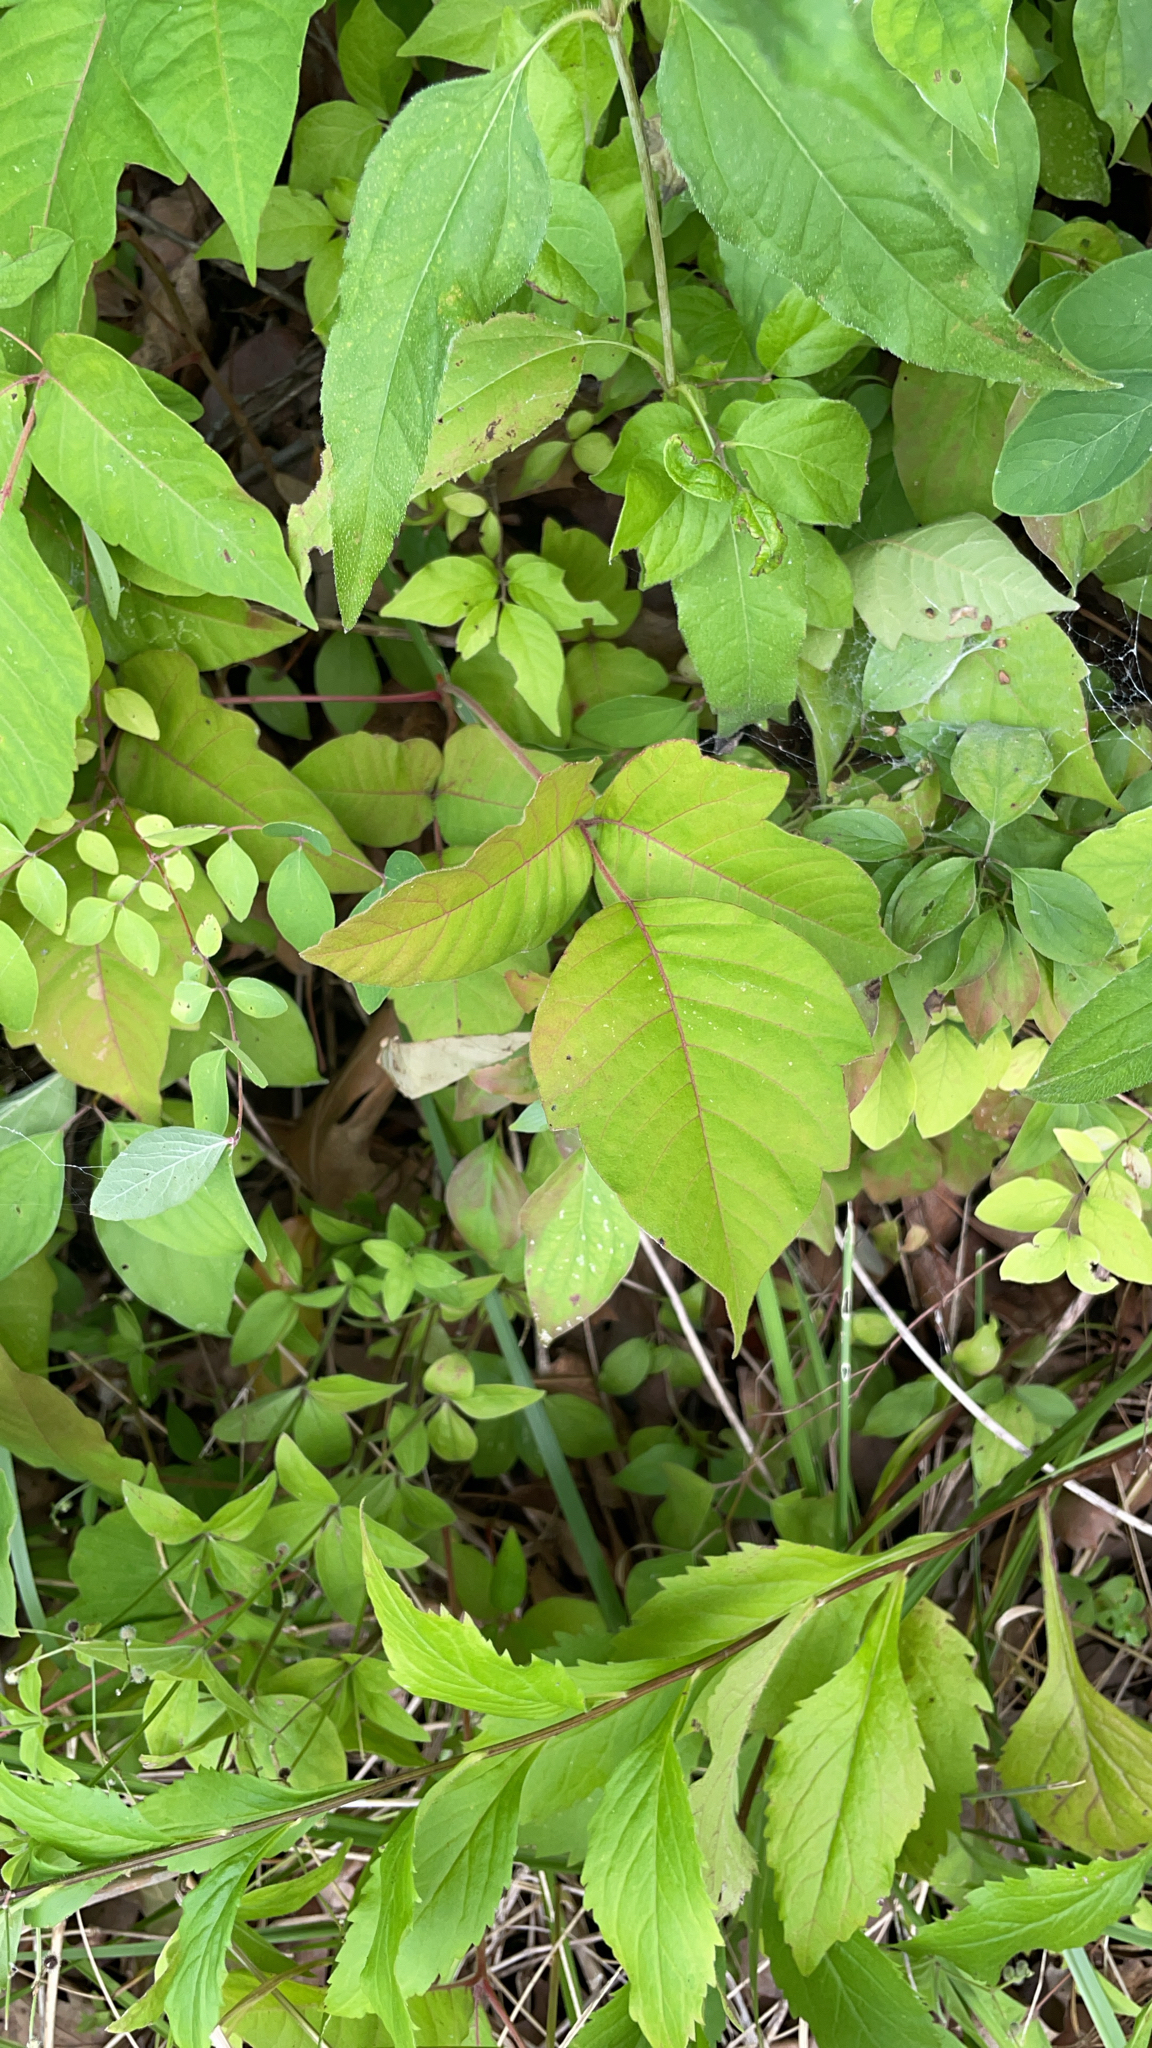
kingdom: Plantae
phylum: Tracheophyta
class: Magnoliopsida
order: Sapindales
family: Anacardiaceae
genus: Toxicodendron
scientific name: Toxicodendron radicans
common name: Poison ivy
